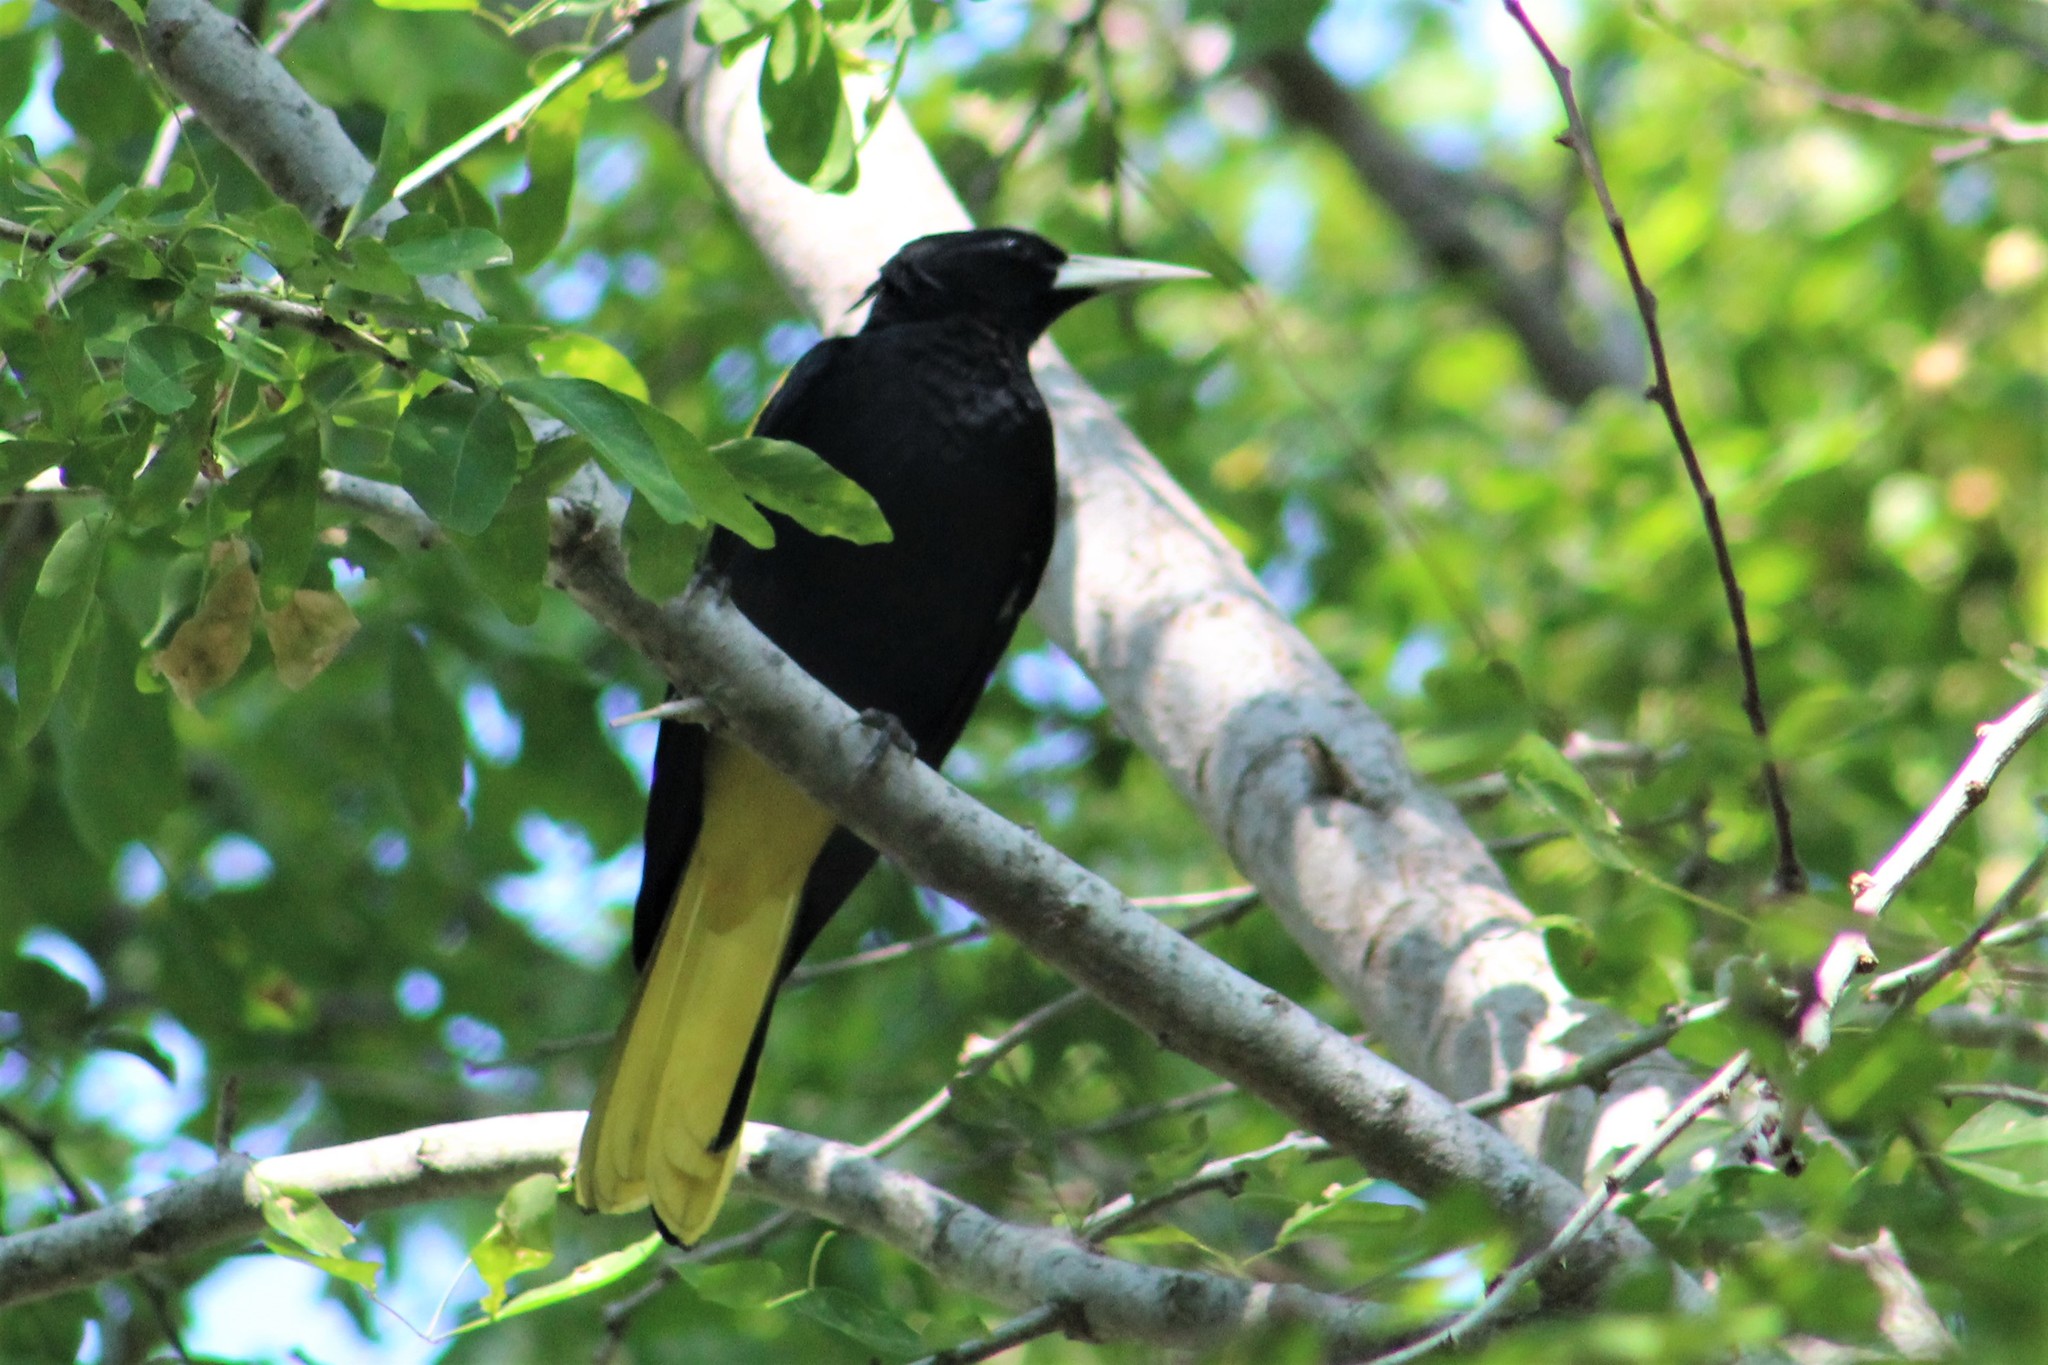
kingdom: Animalia
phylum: Chordata
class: Aves
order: Passeriformes
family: Icteridae
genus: Cacicus
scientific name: Cacicus melanicterus
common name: Yellow-winged cacique
